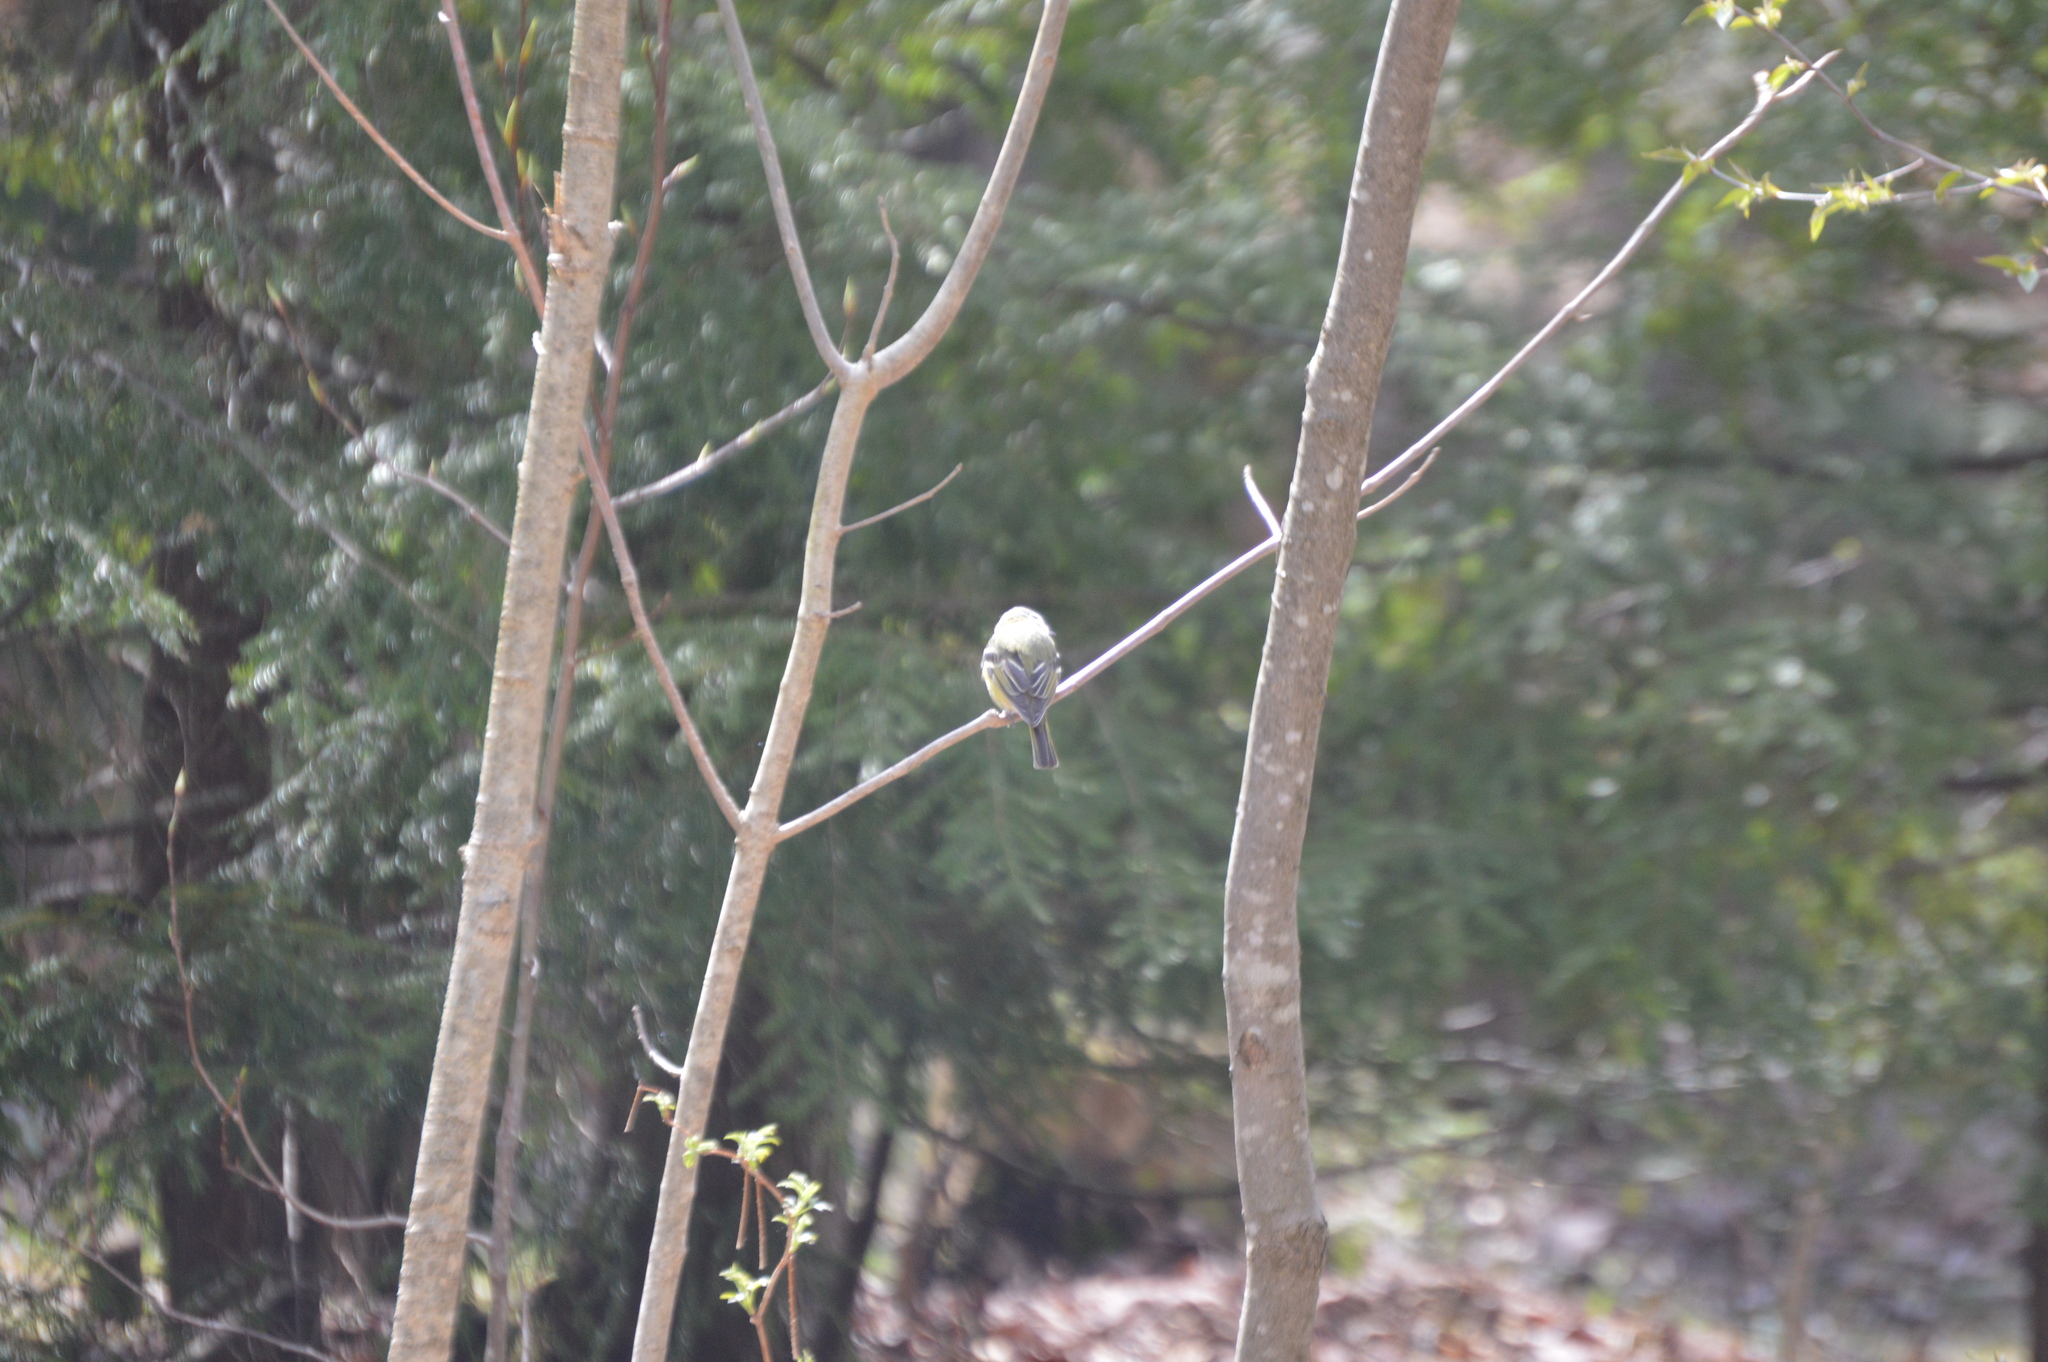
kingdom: Animalia
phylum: Chordata
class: Aves
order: Passeriformes
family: Vireonidae
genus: Vireo
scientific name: Vireo solitarius
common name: Blue-headed vireo
